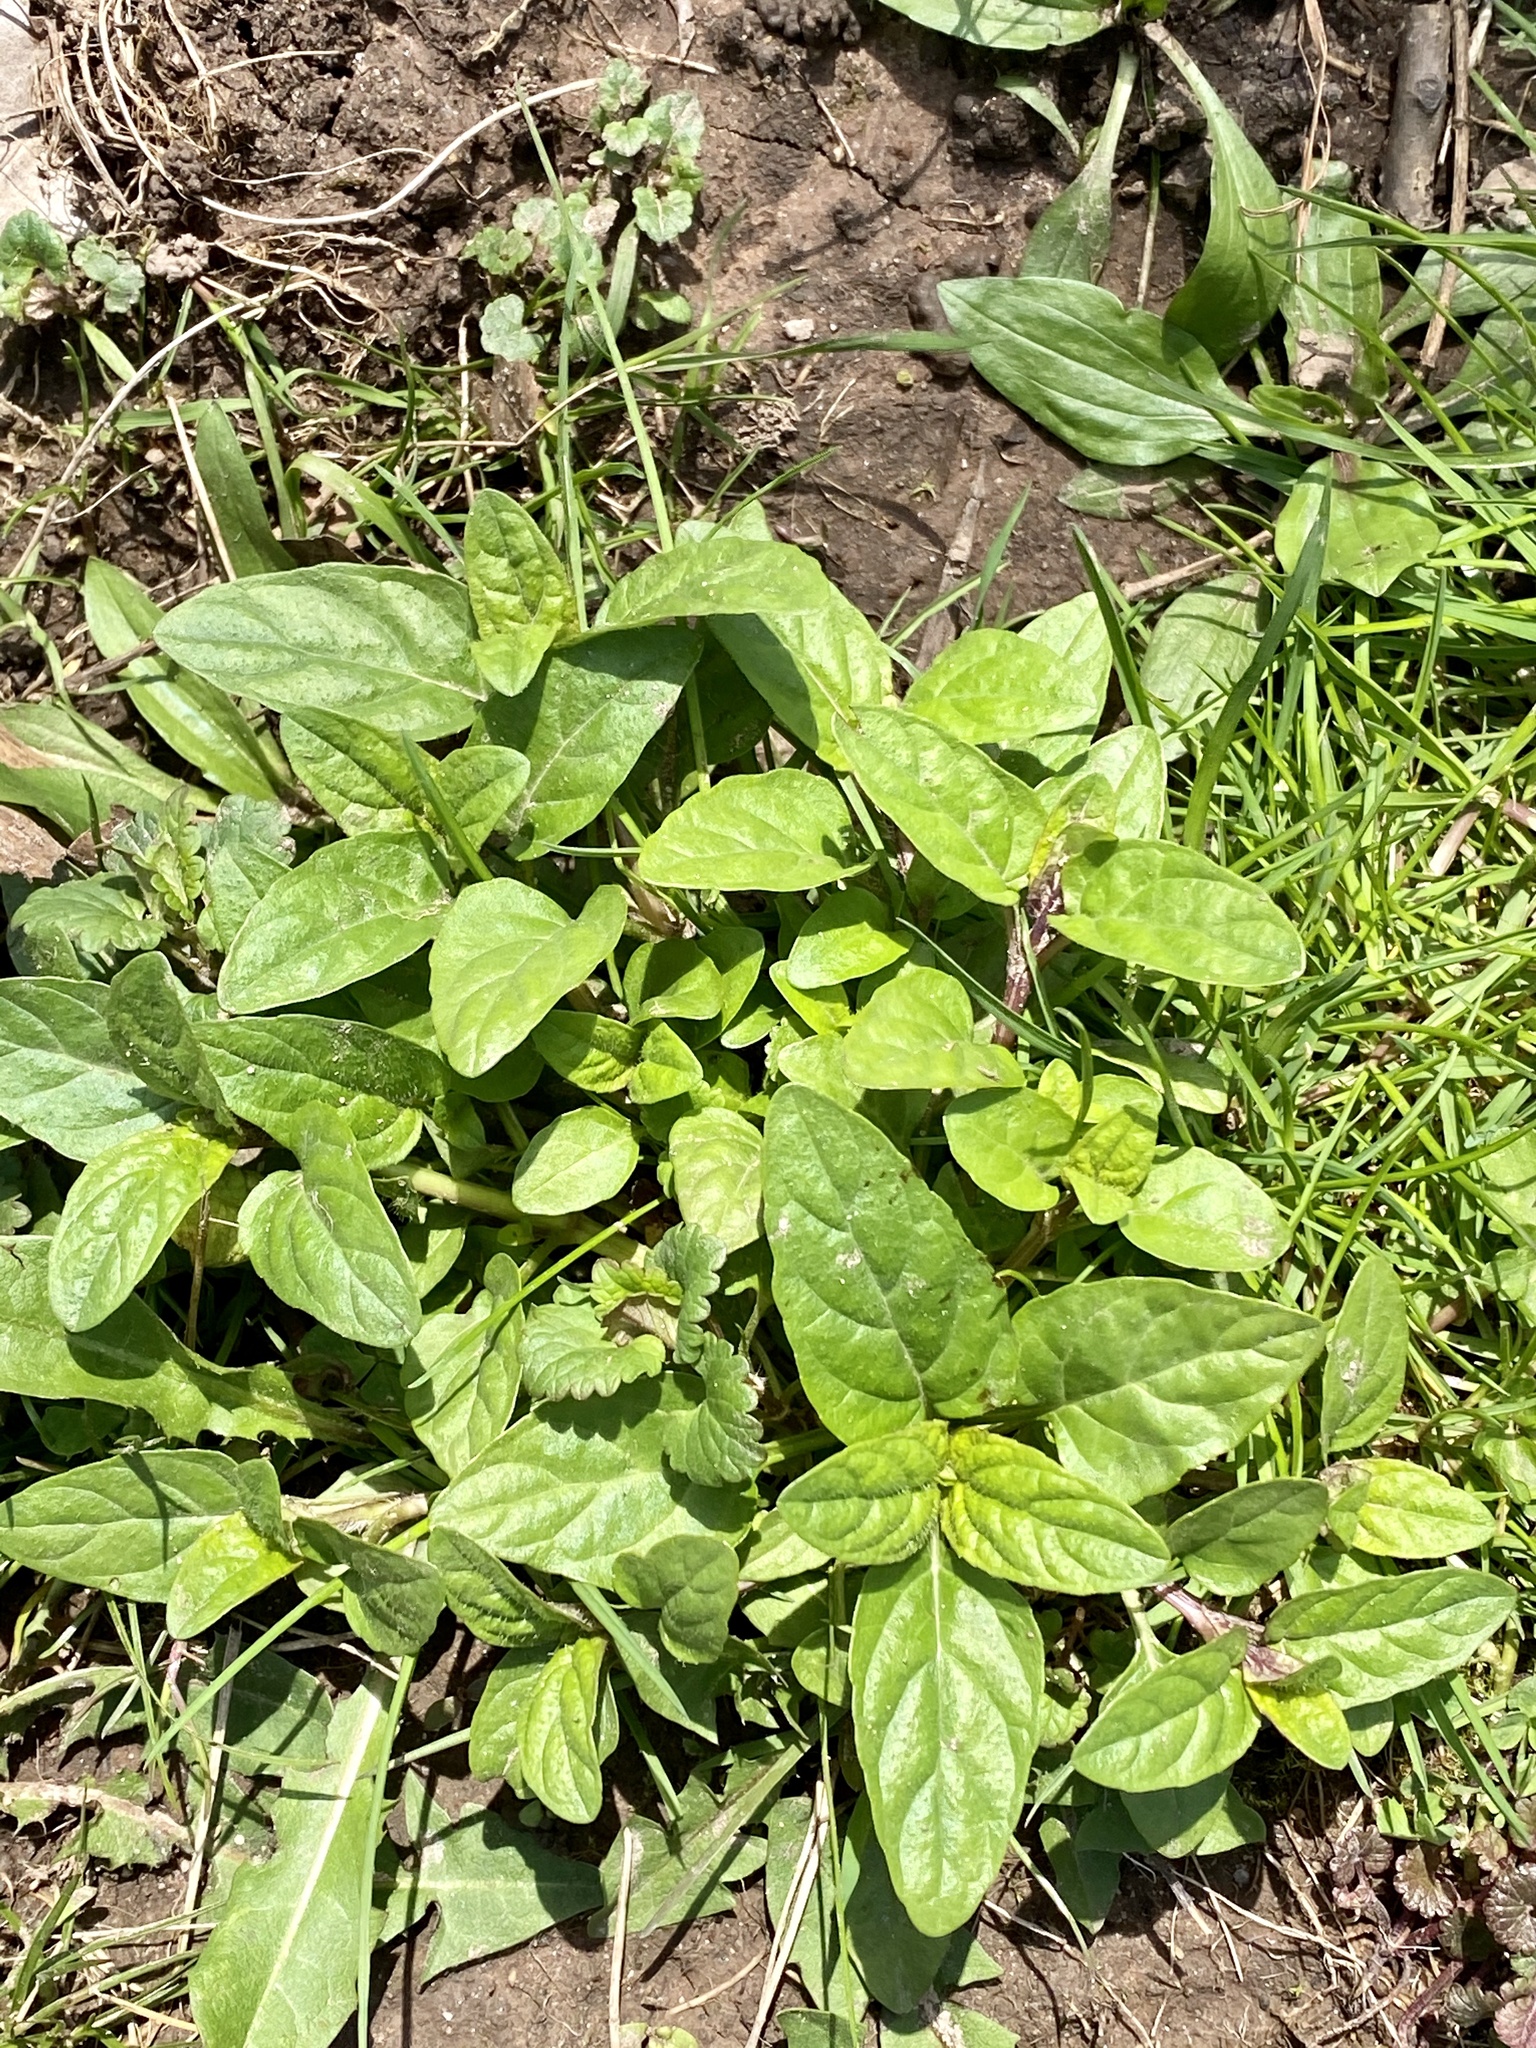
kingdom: Plantae
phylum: Tracheophyta
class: Magnoliopsida
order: Lamiales
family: Lamiaceae
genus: Prunella
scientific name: Prunella vulgaris
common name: Heal-all
